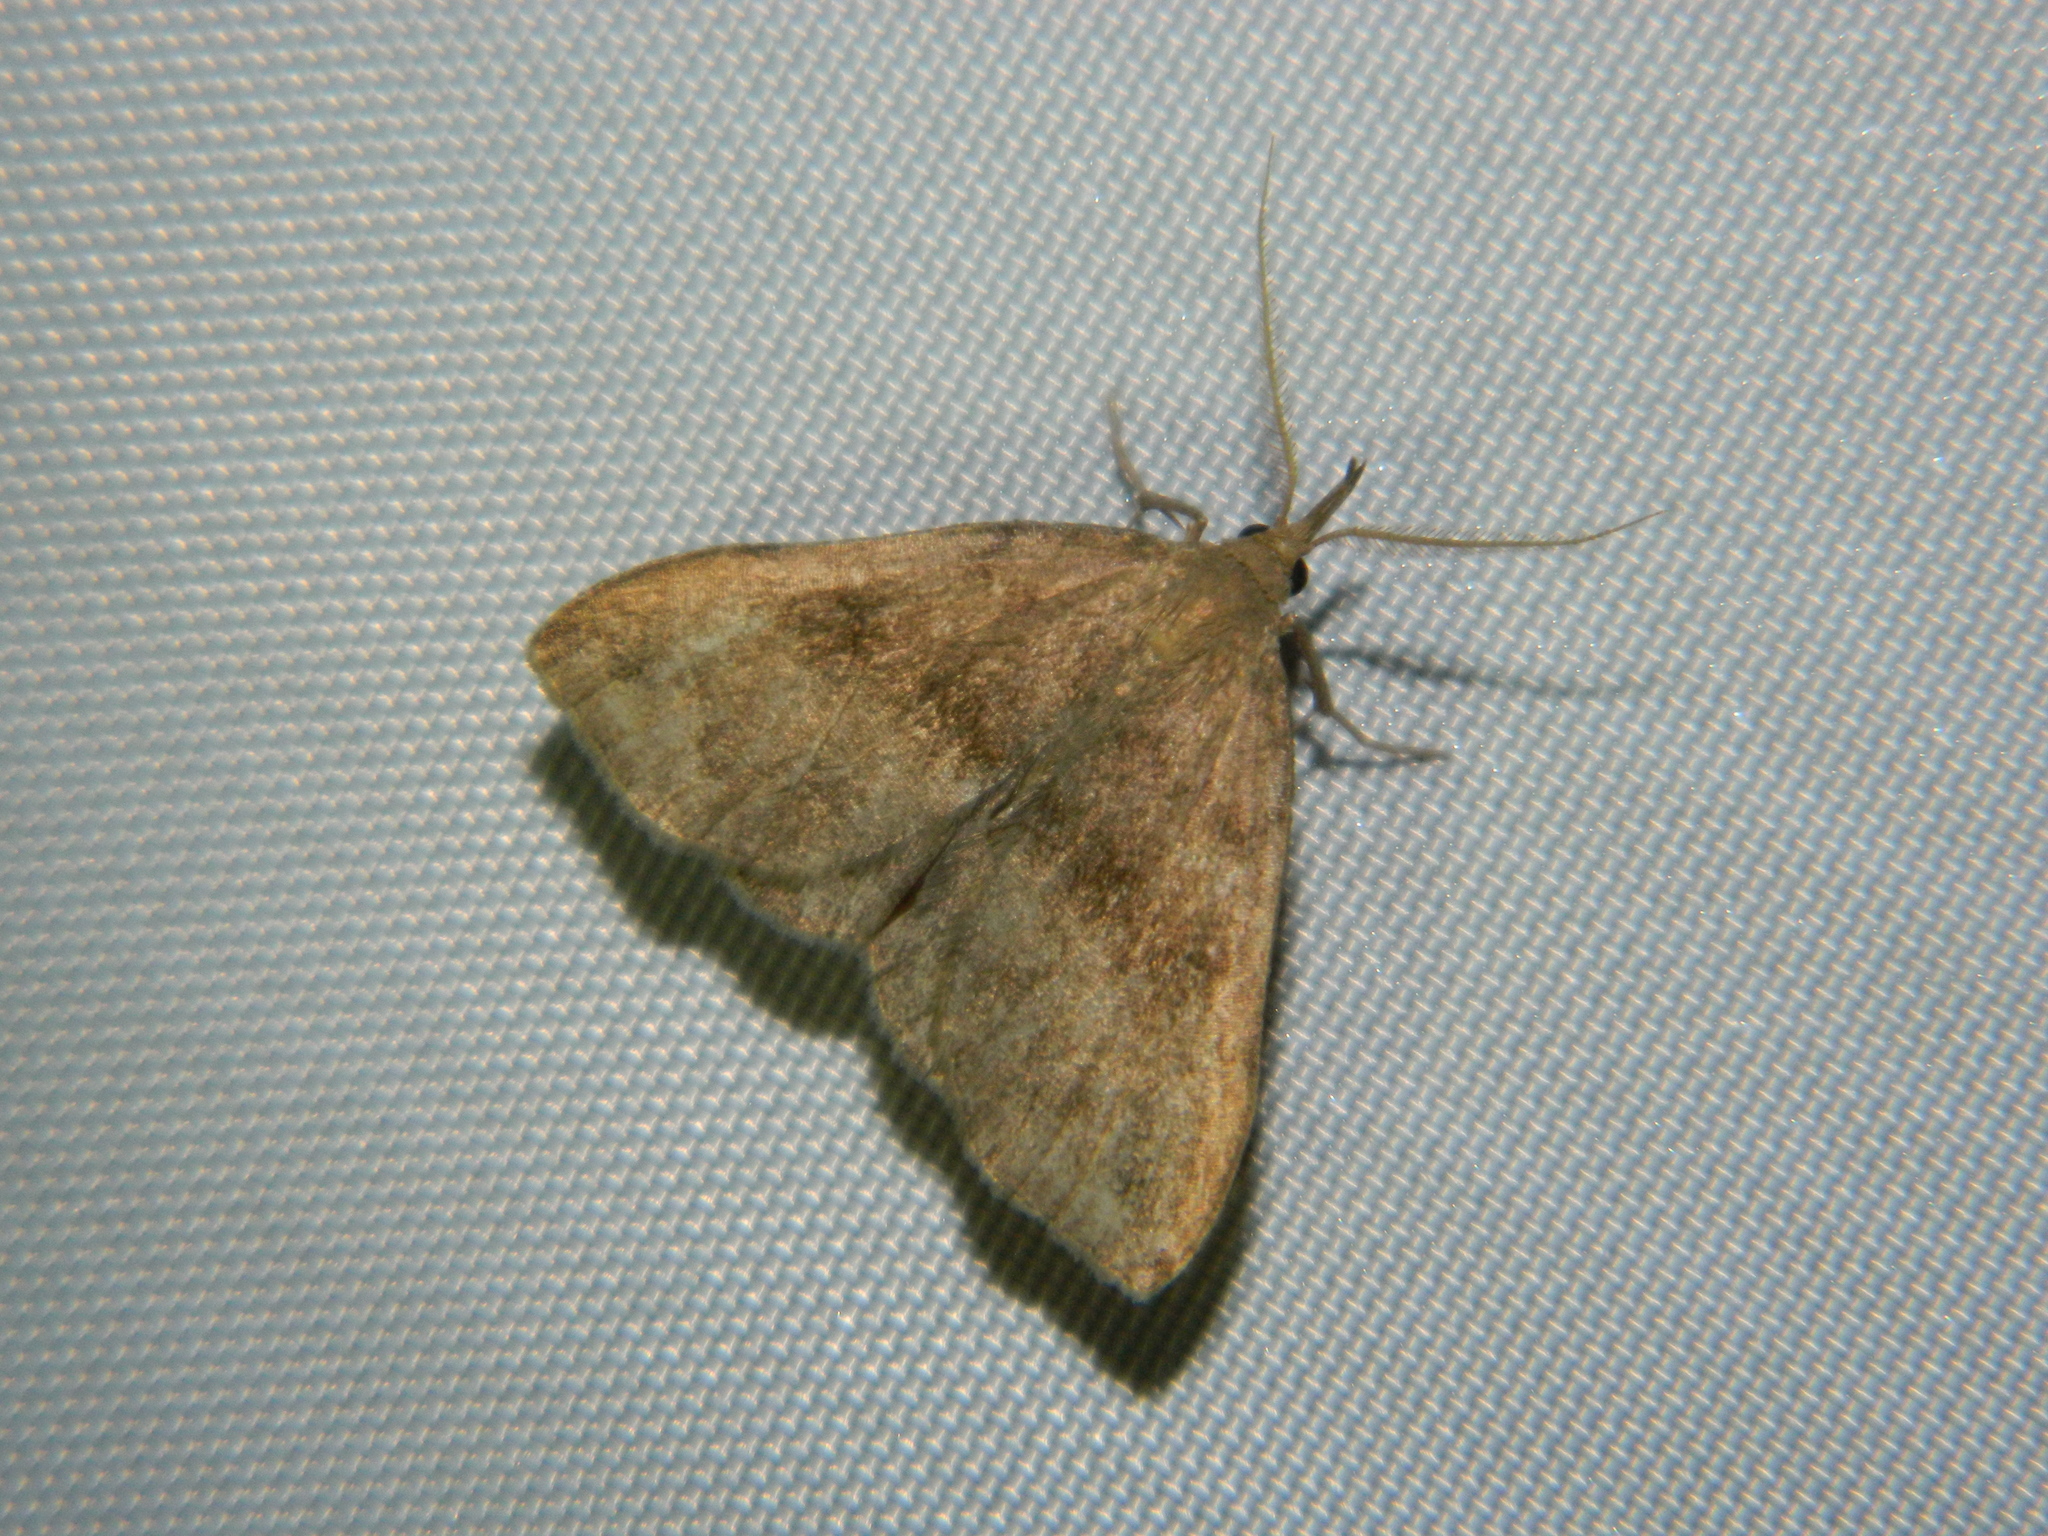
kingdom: Animalia
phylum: Arthropoda
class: Insecta
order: Lepidoptera
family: Erebidae
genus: Phalaenostola
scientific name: Phalaenostola eumelusalis
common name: Dark phalaenostola moth
